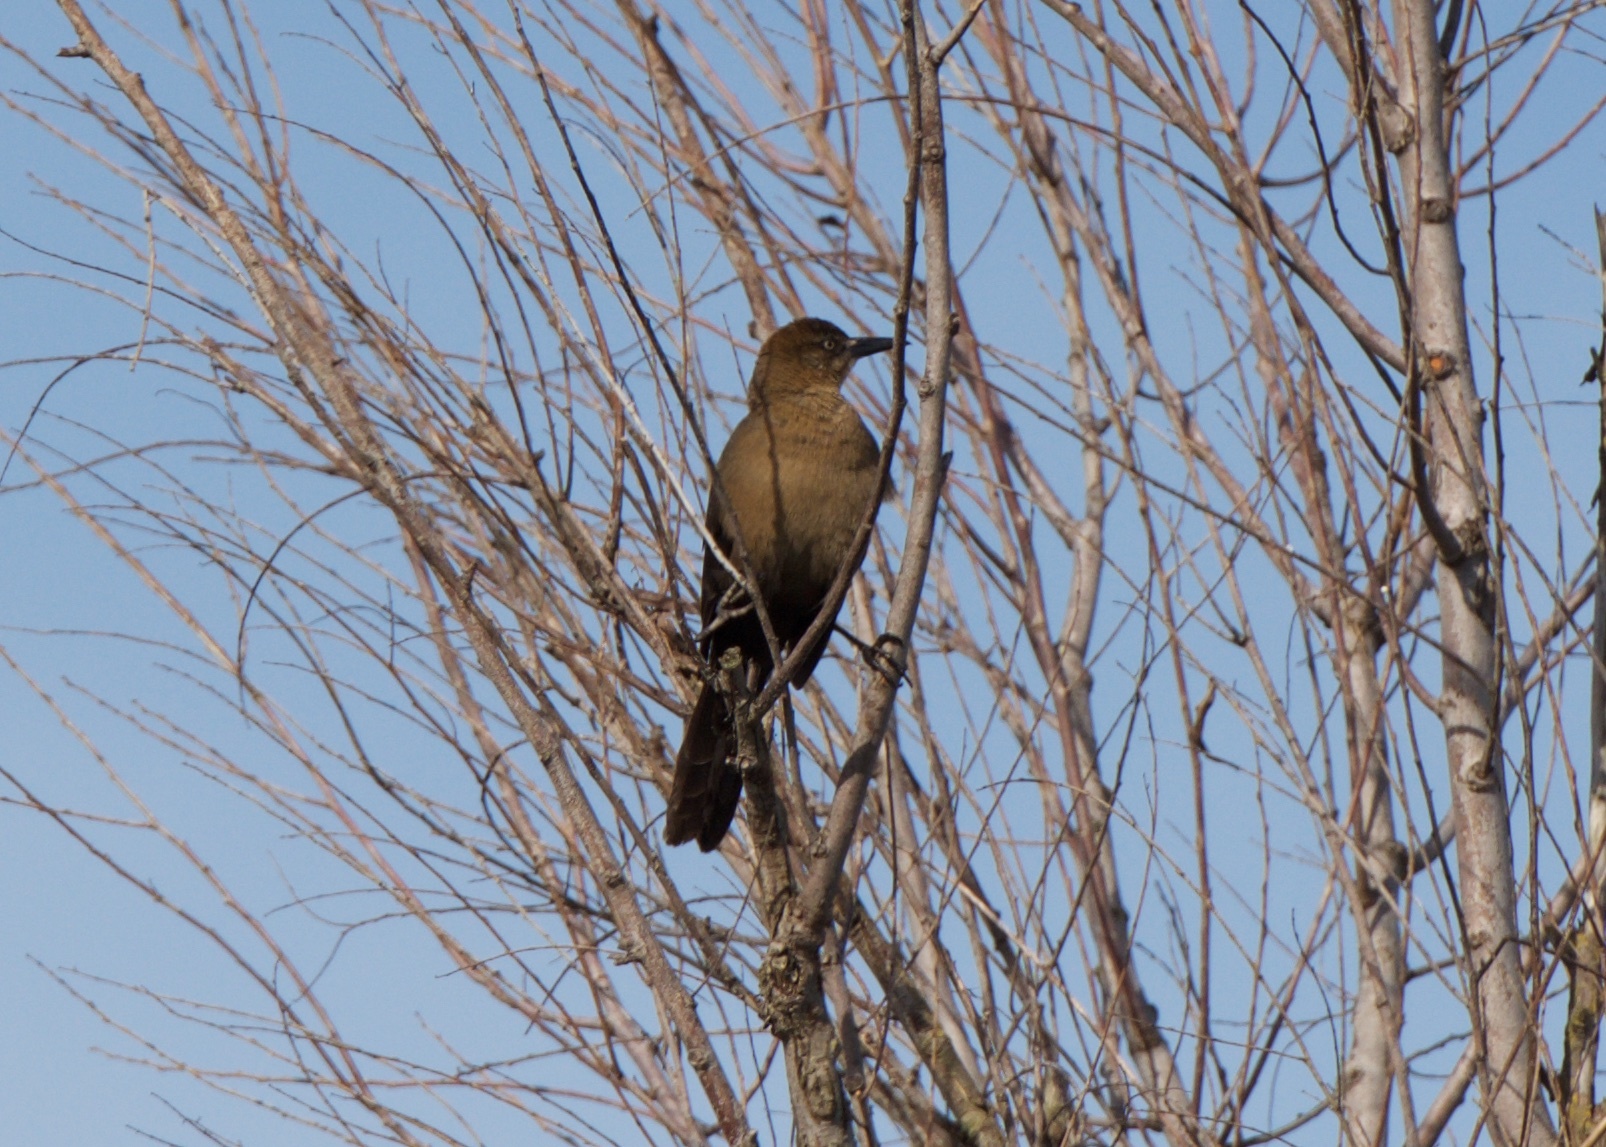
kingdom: Animalia
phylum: Chordata
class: Aves
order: Passeriformes
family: Icteridae
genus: Quiscalus
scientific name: Quiscalus mexicanus
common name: Great-tailed grackle
